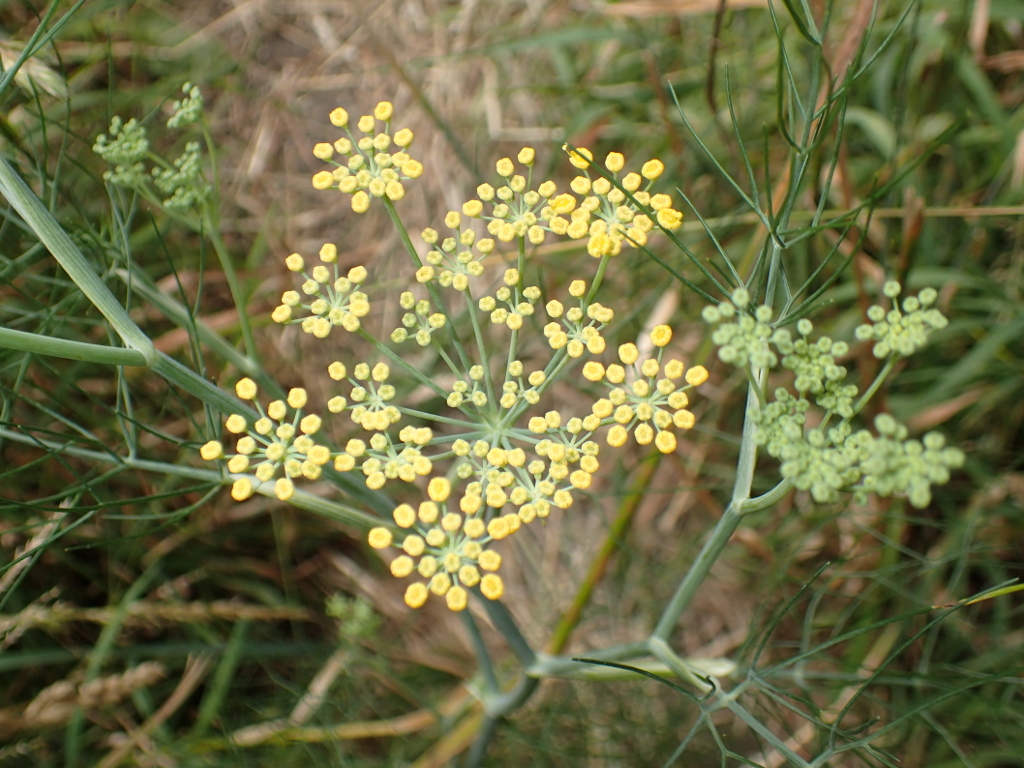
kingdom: Plantae
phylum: Tracheophyta
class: Magnoliopsida
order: Apiales
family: Apiaceae
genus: Foeniculum
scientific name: Foeniculum vulgare
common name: Fennel
